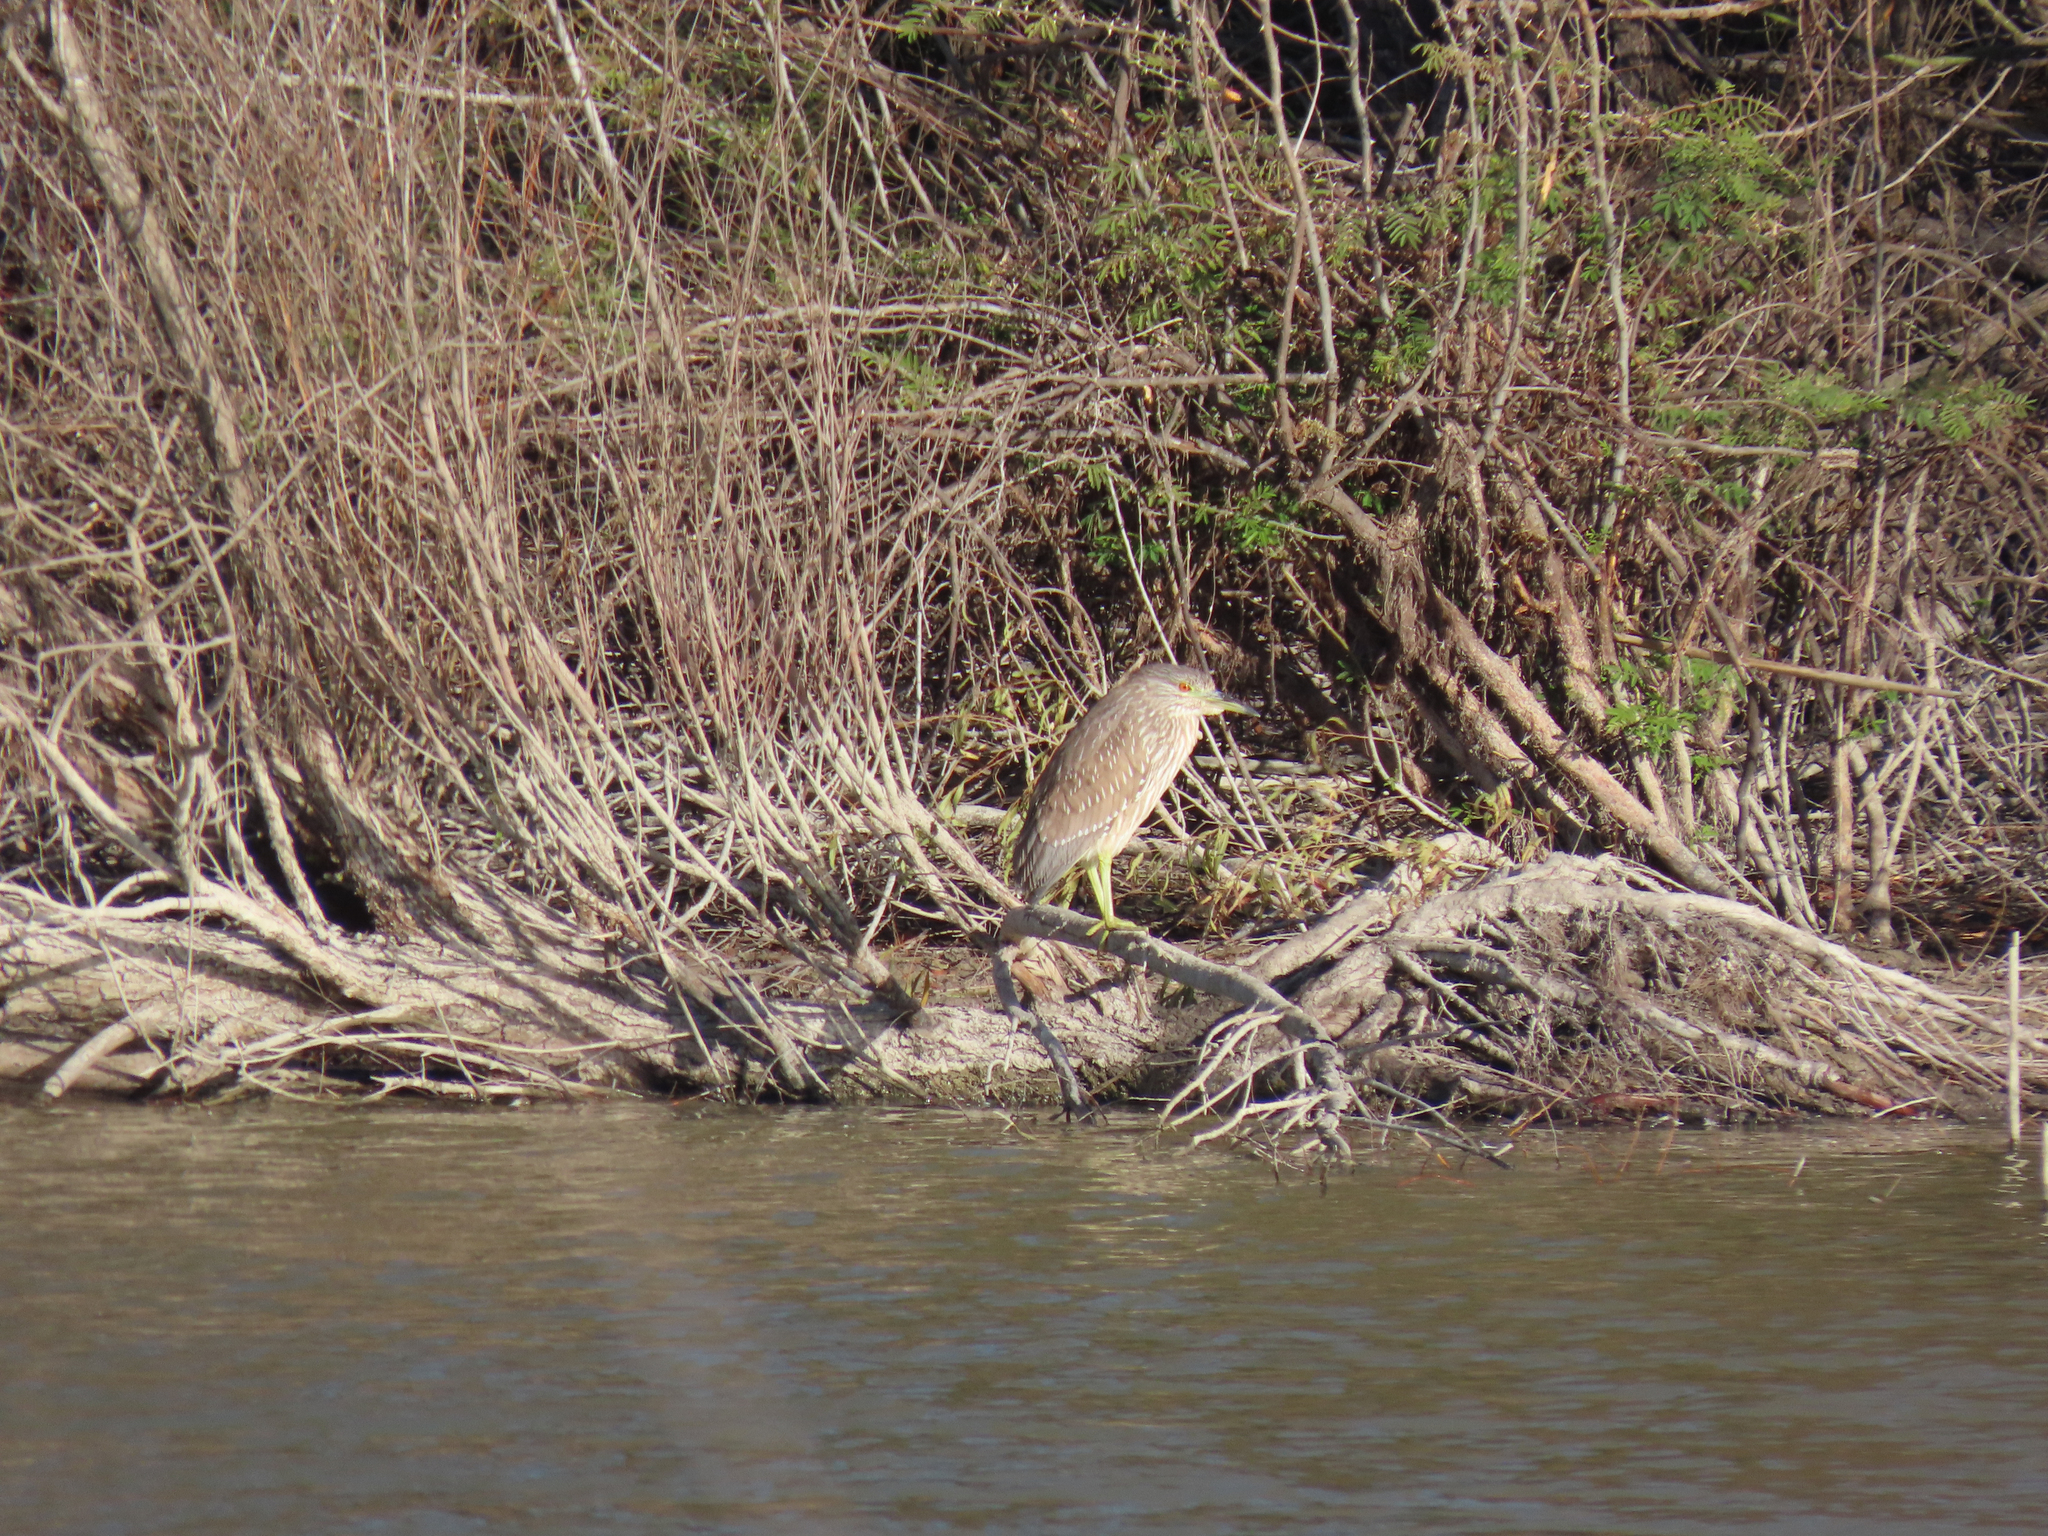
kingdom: Animalia
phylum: Chordata
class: Aves
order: Pelecaniformes
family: Ardeidae
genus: Nycticorax
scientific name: Nycticorax nycticorax
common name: Black-crowned night heron
